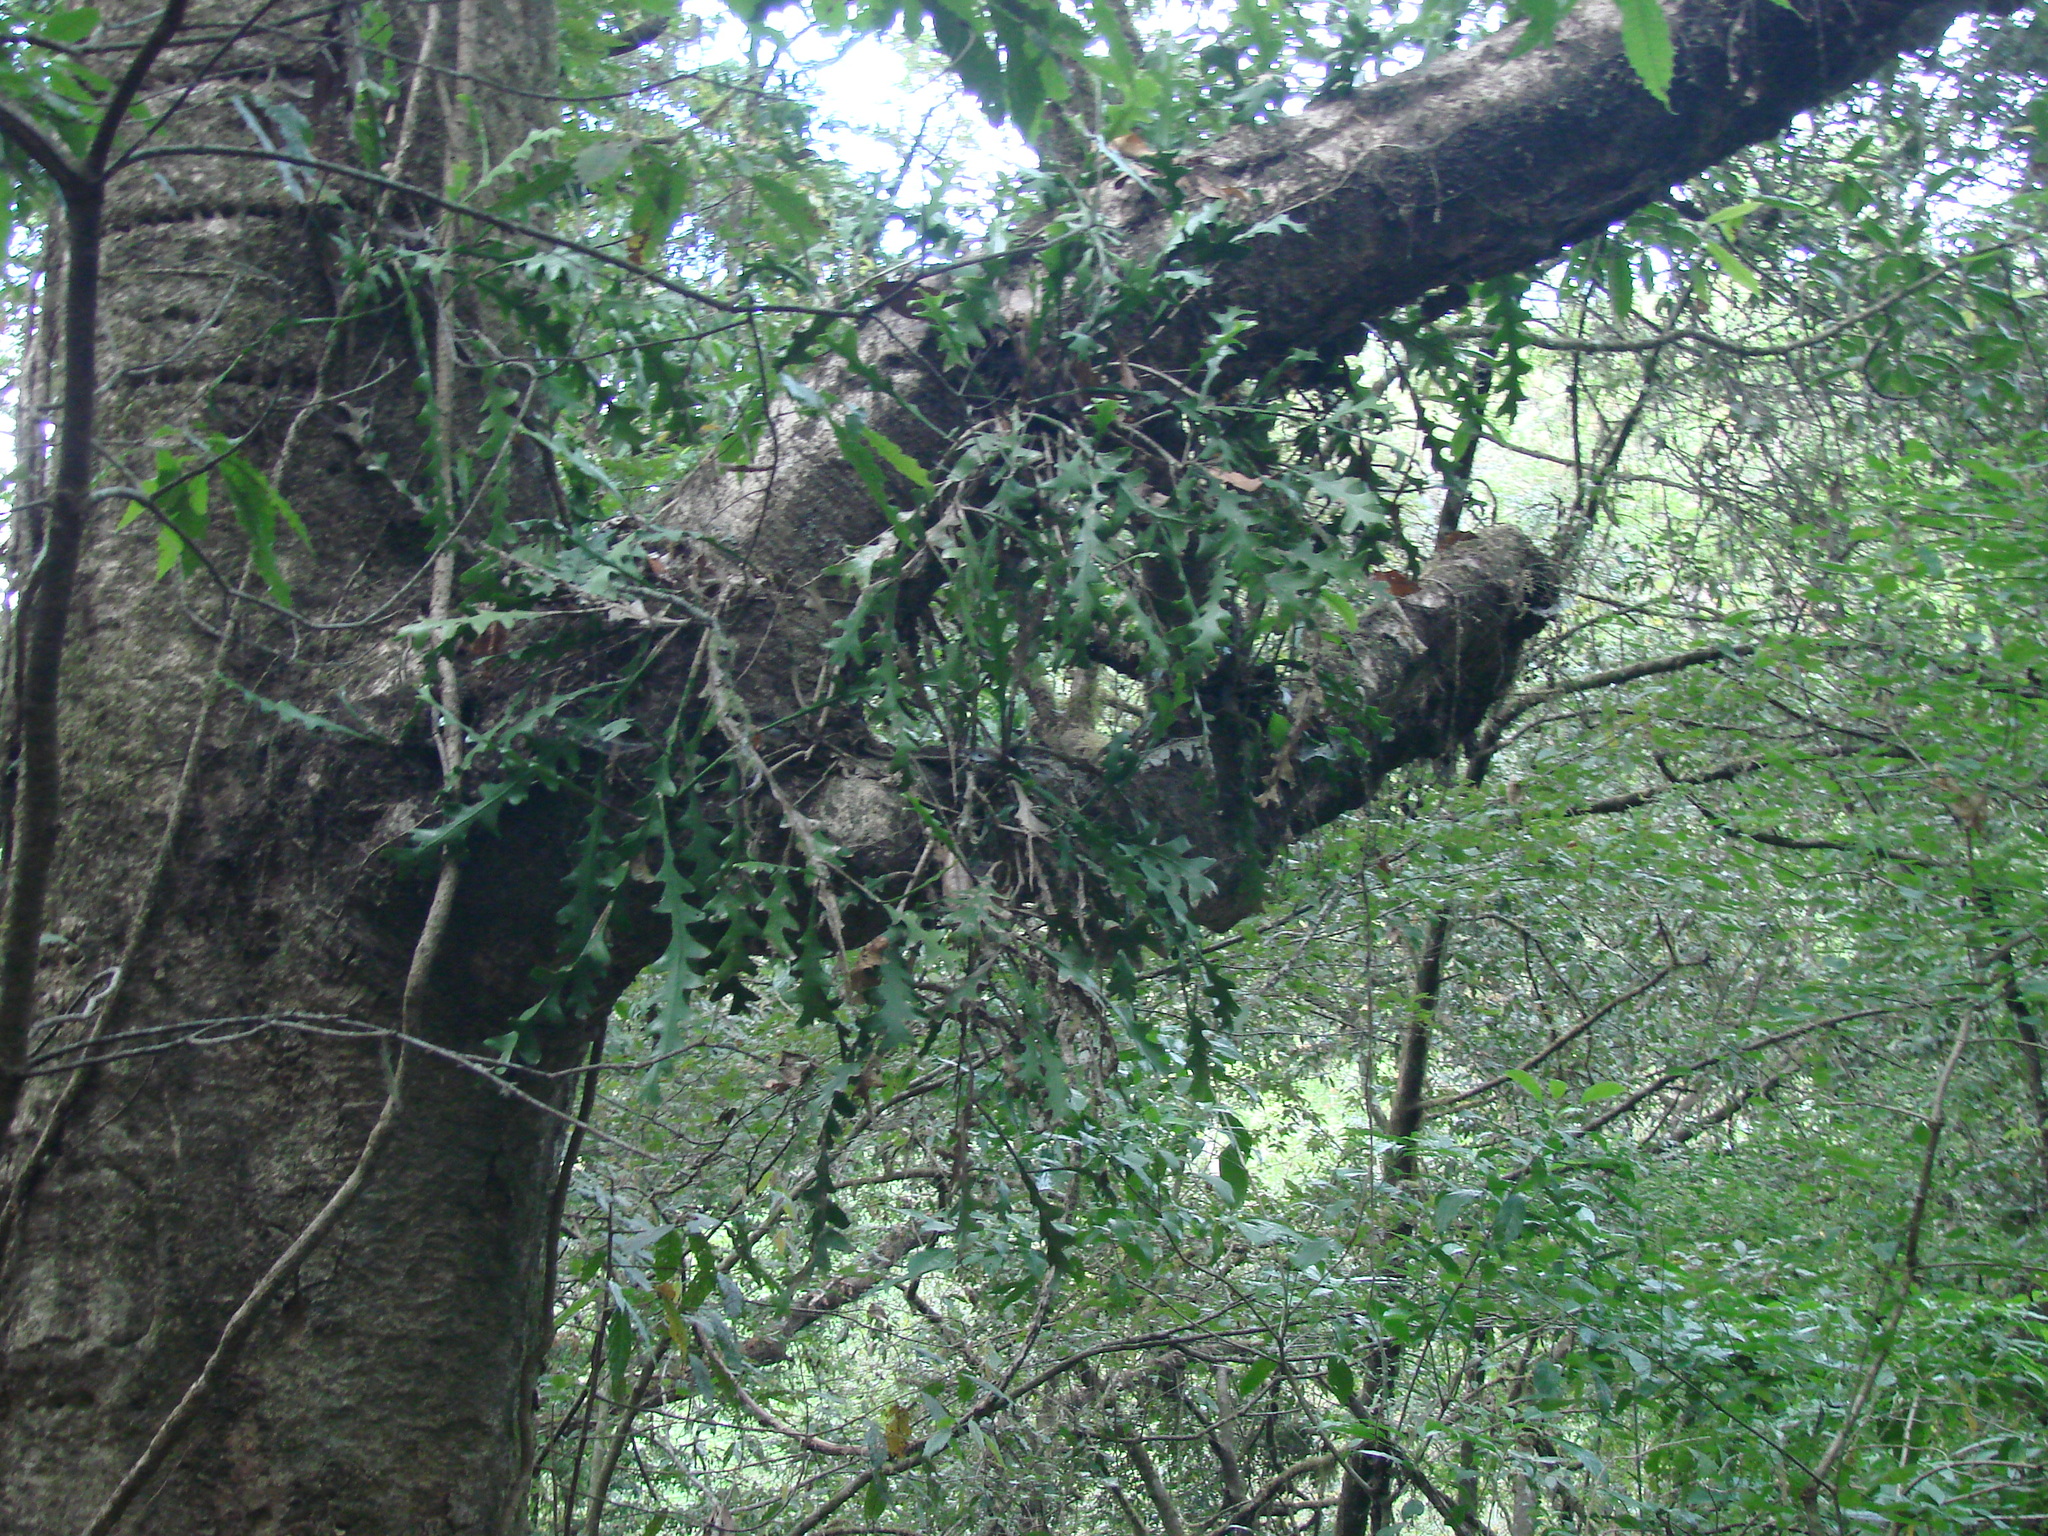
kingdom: Plantae
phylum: Tracheophyta
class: Magnoliopsida
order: Caryophyllales
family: Cactaceae
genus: Disocactus
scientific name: Disocactus anguliger
